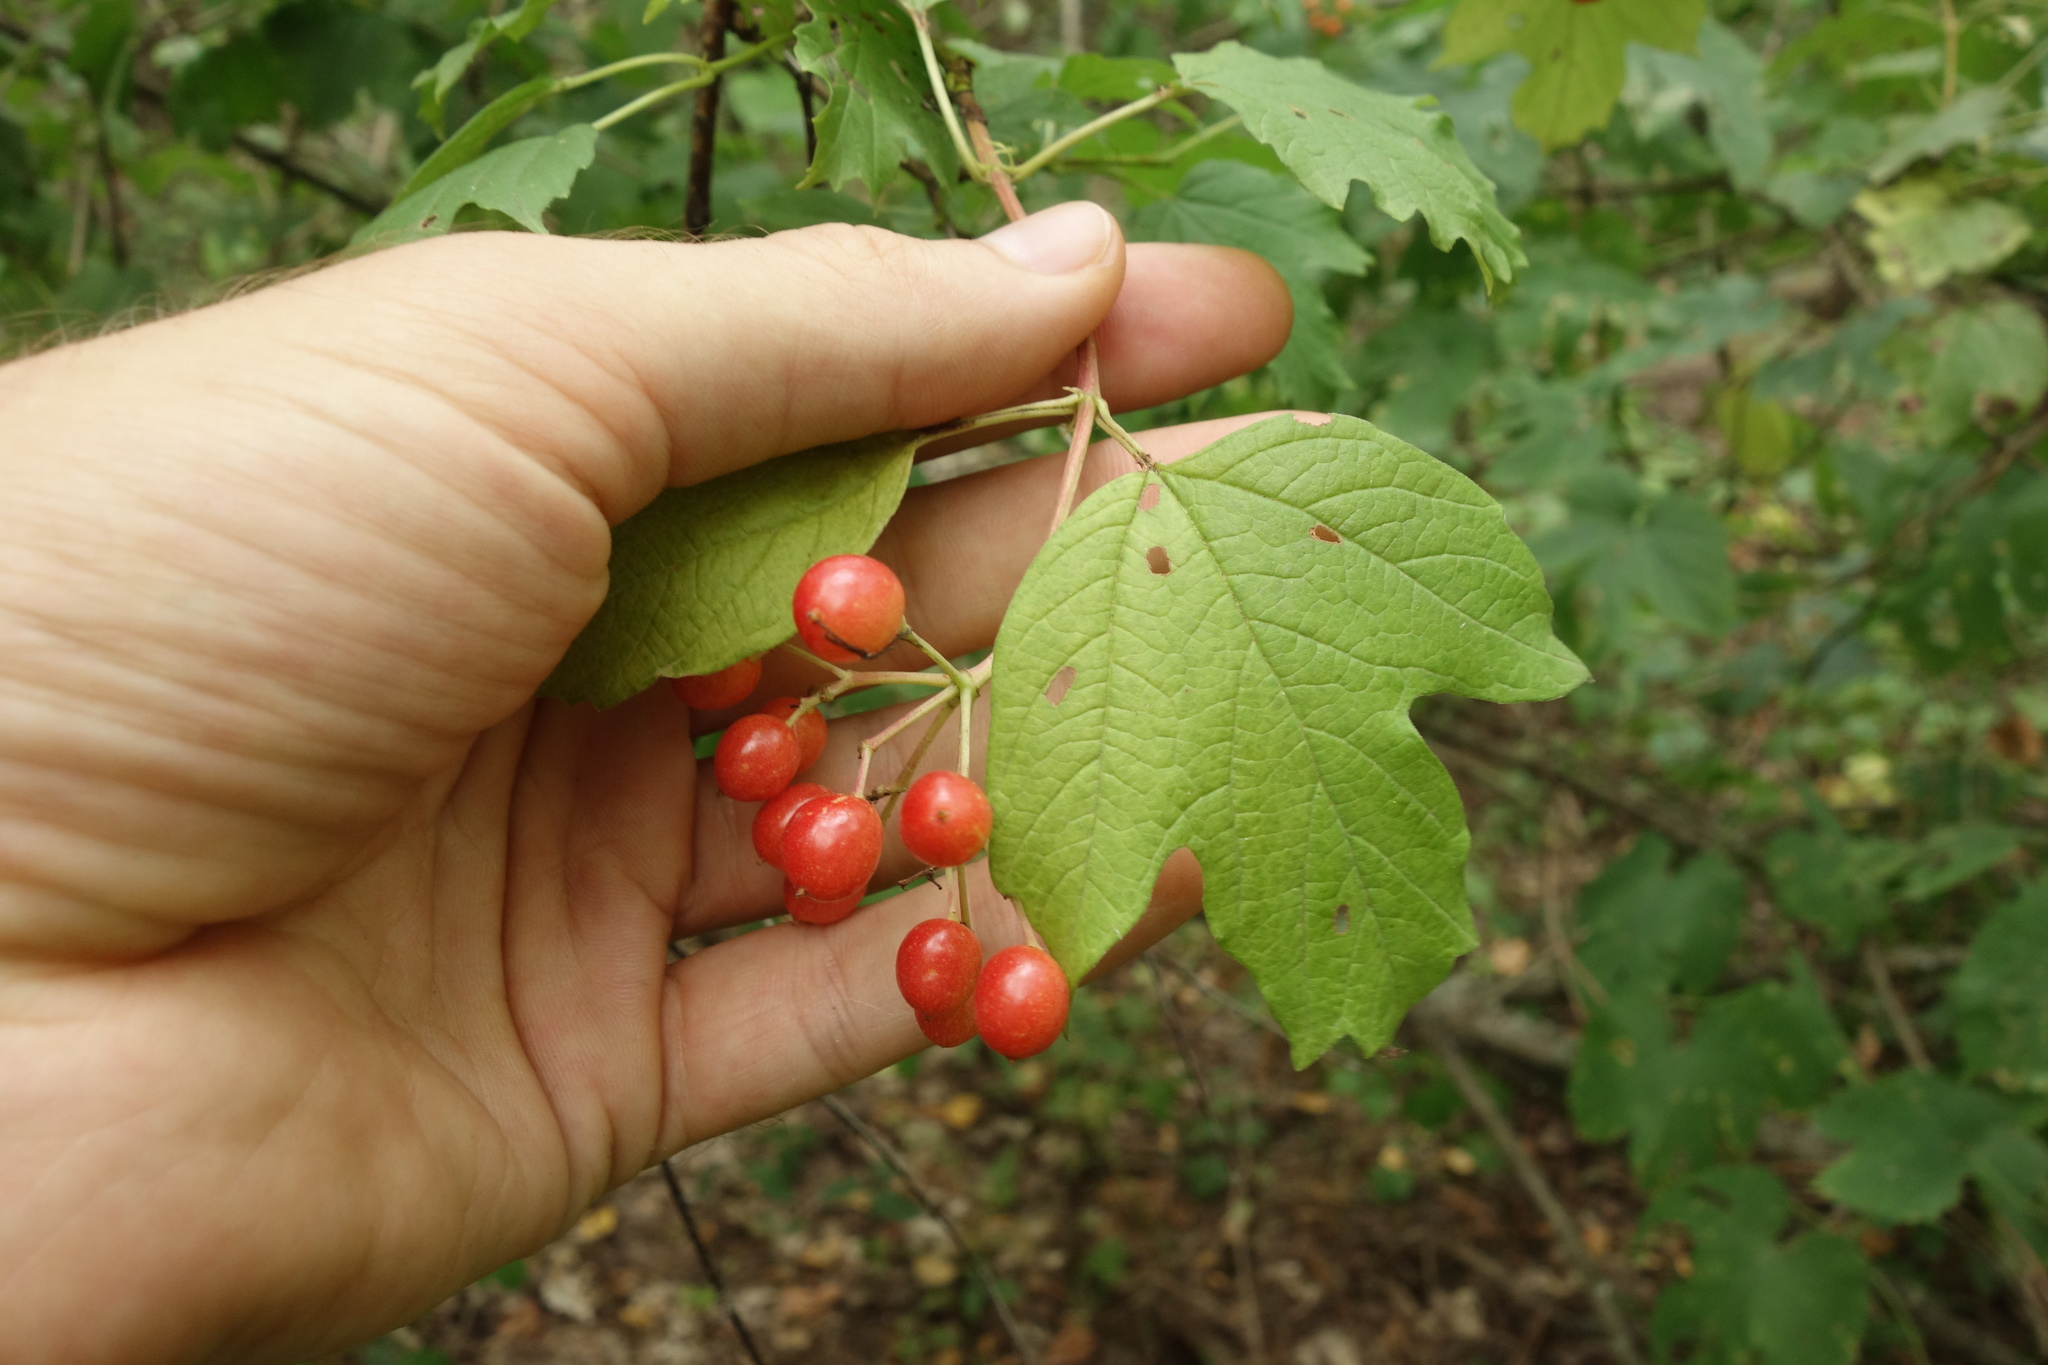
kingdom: Plantae
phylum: Tracheophyta
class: Magnoliopsida
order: Dipsacales
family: Viburnaceae
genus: Viburnum
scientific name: Viburnum opulus
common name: Guelder-rose
